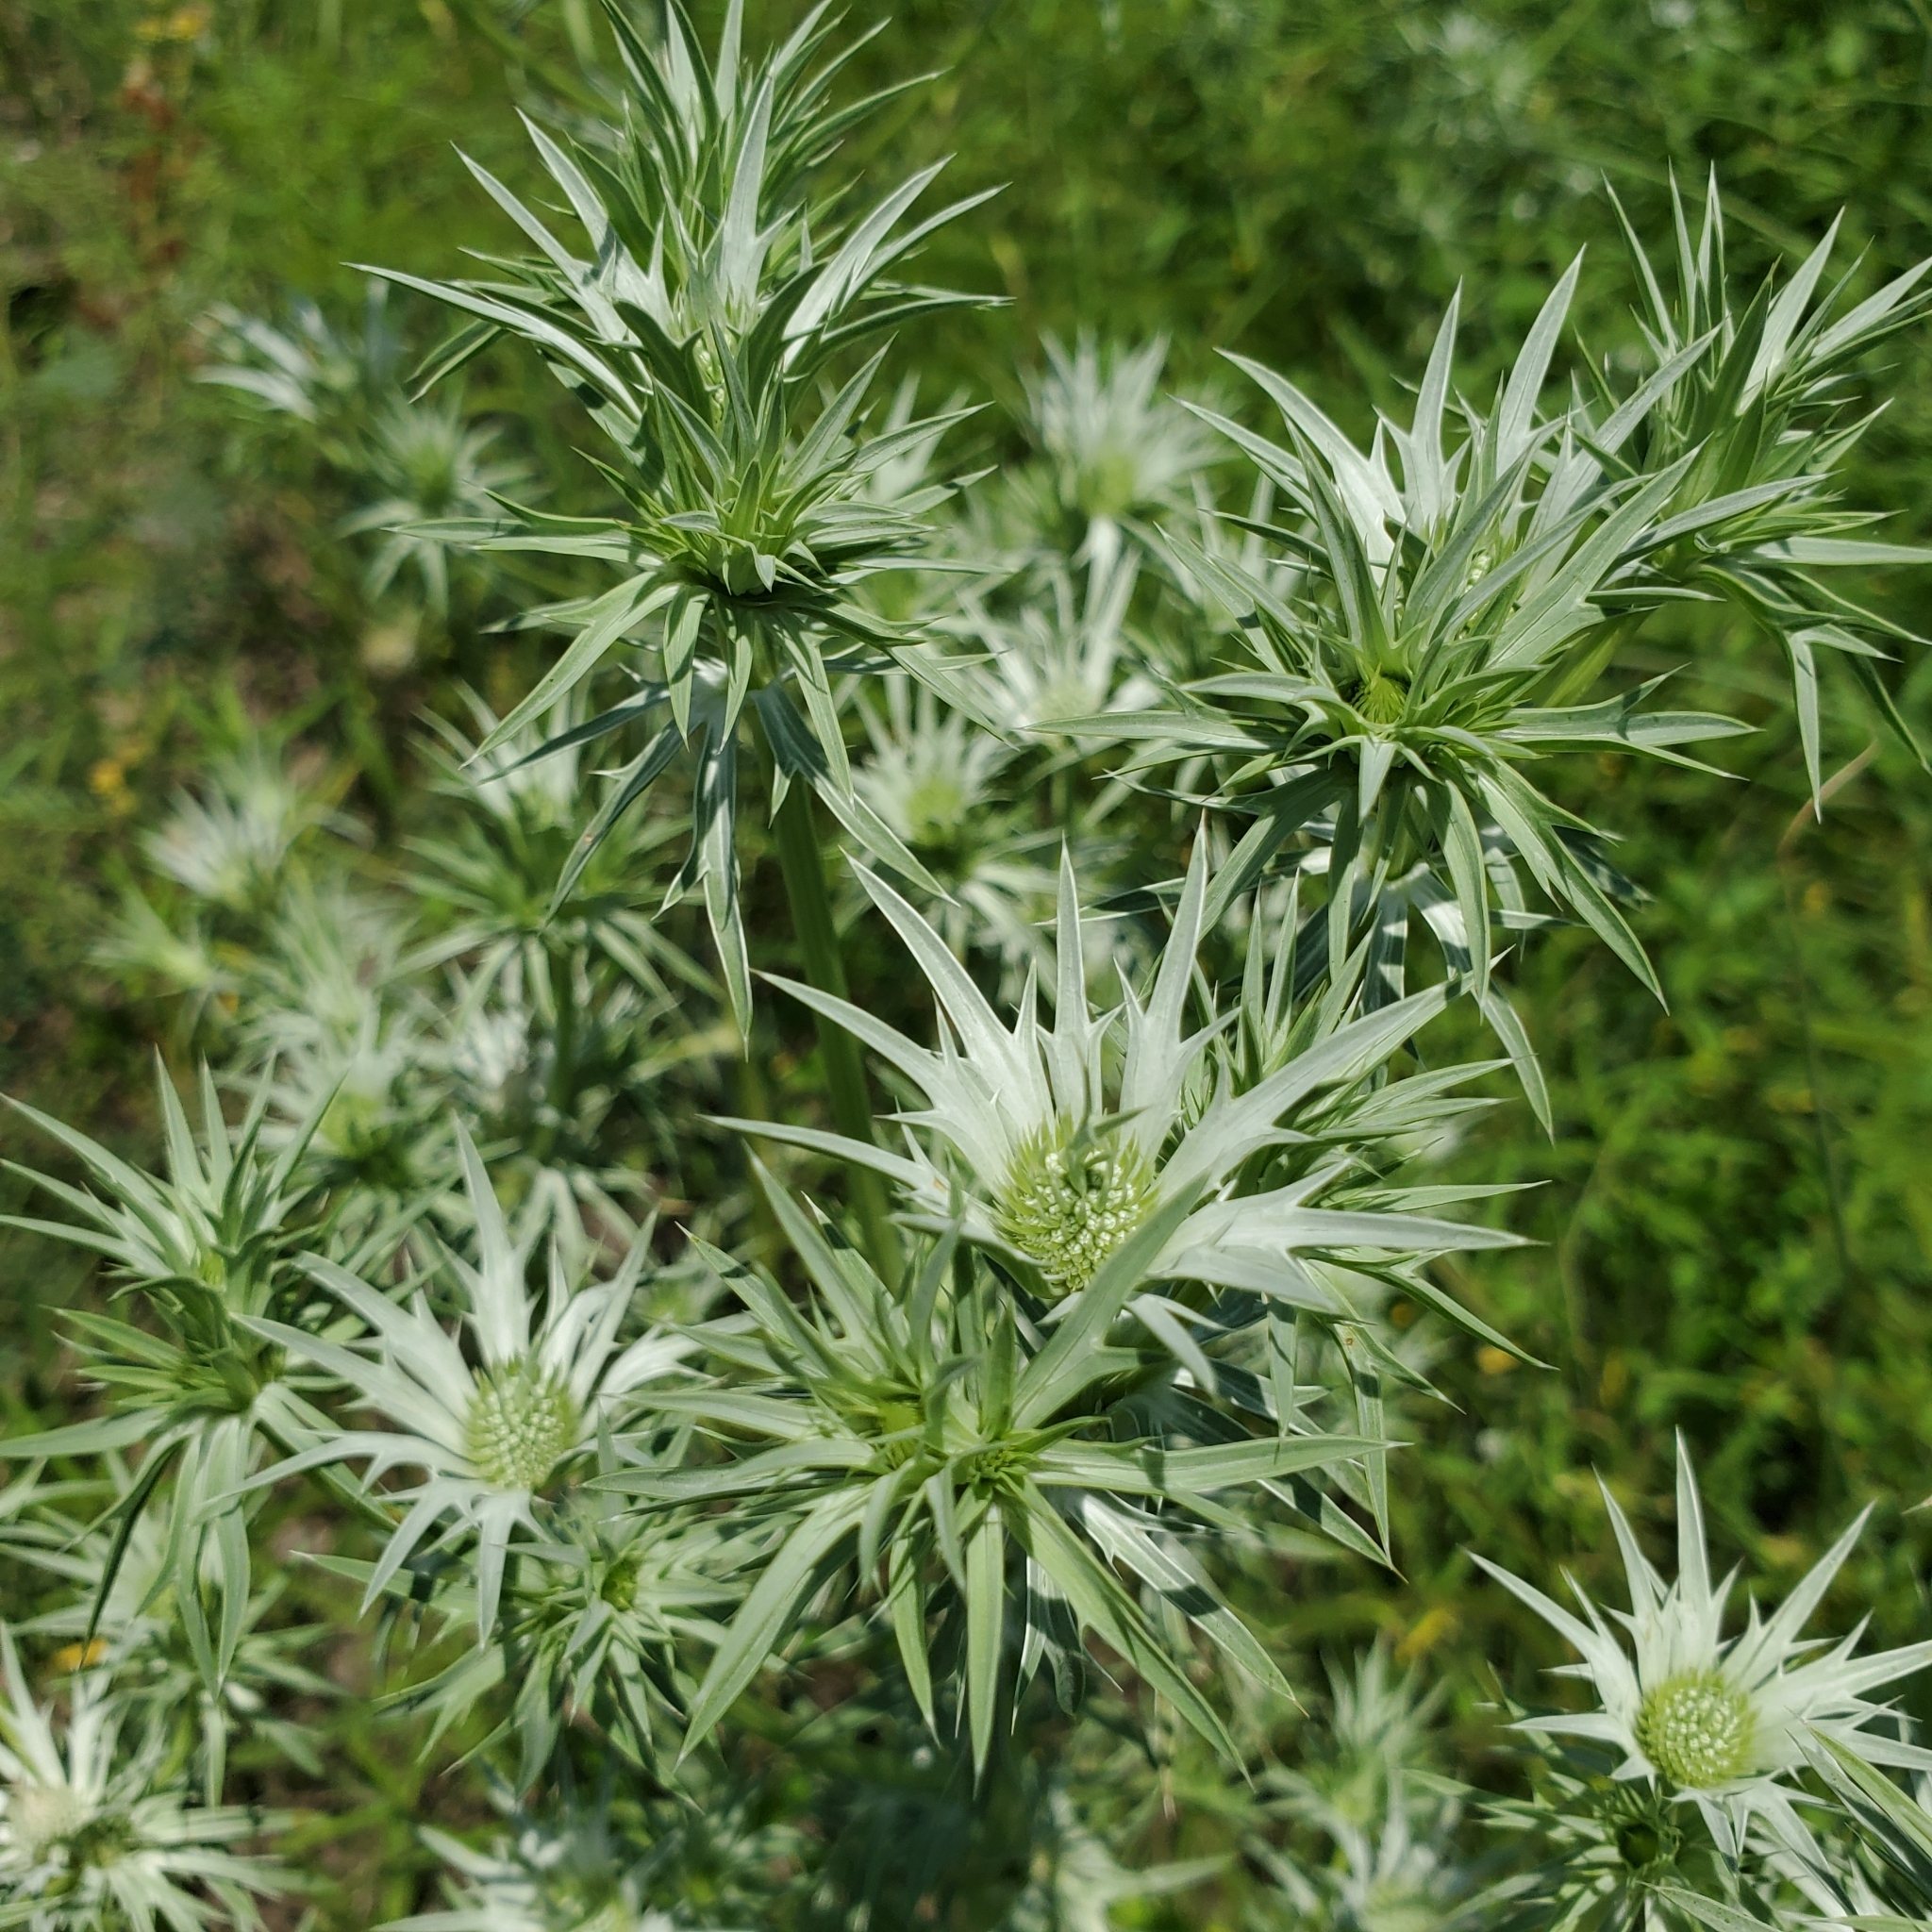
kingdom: Plantae
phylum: Tracheophyta
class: Magnoliopsida
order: Apiales
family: Apiaceae
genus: Eryngium
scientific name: Eryngium heterophyllum
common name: Mexican thistle
